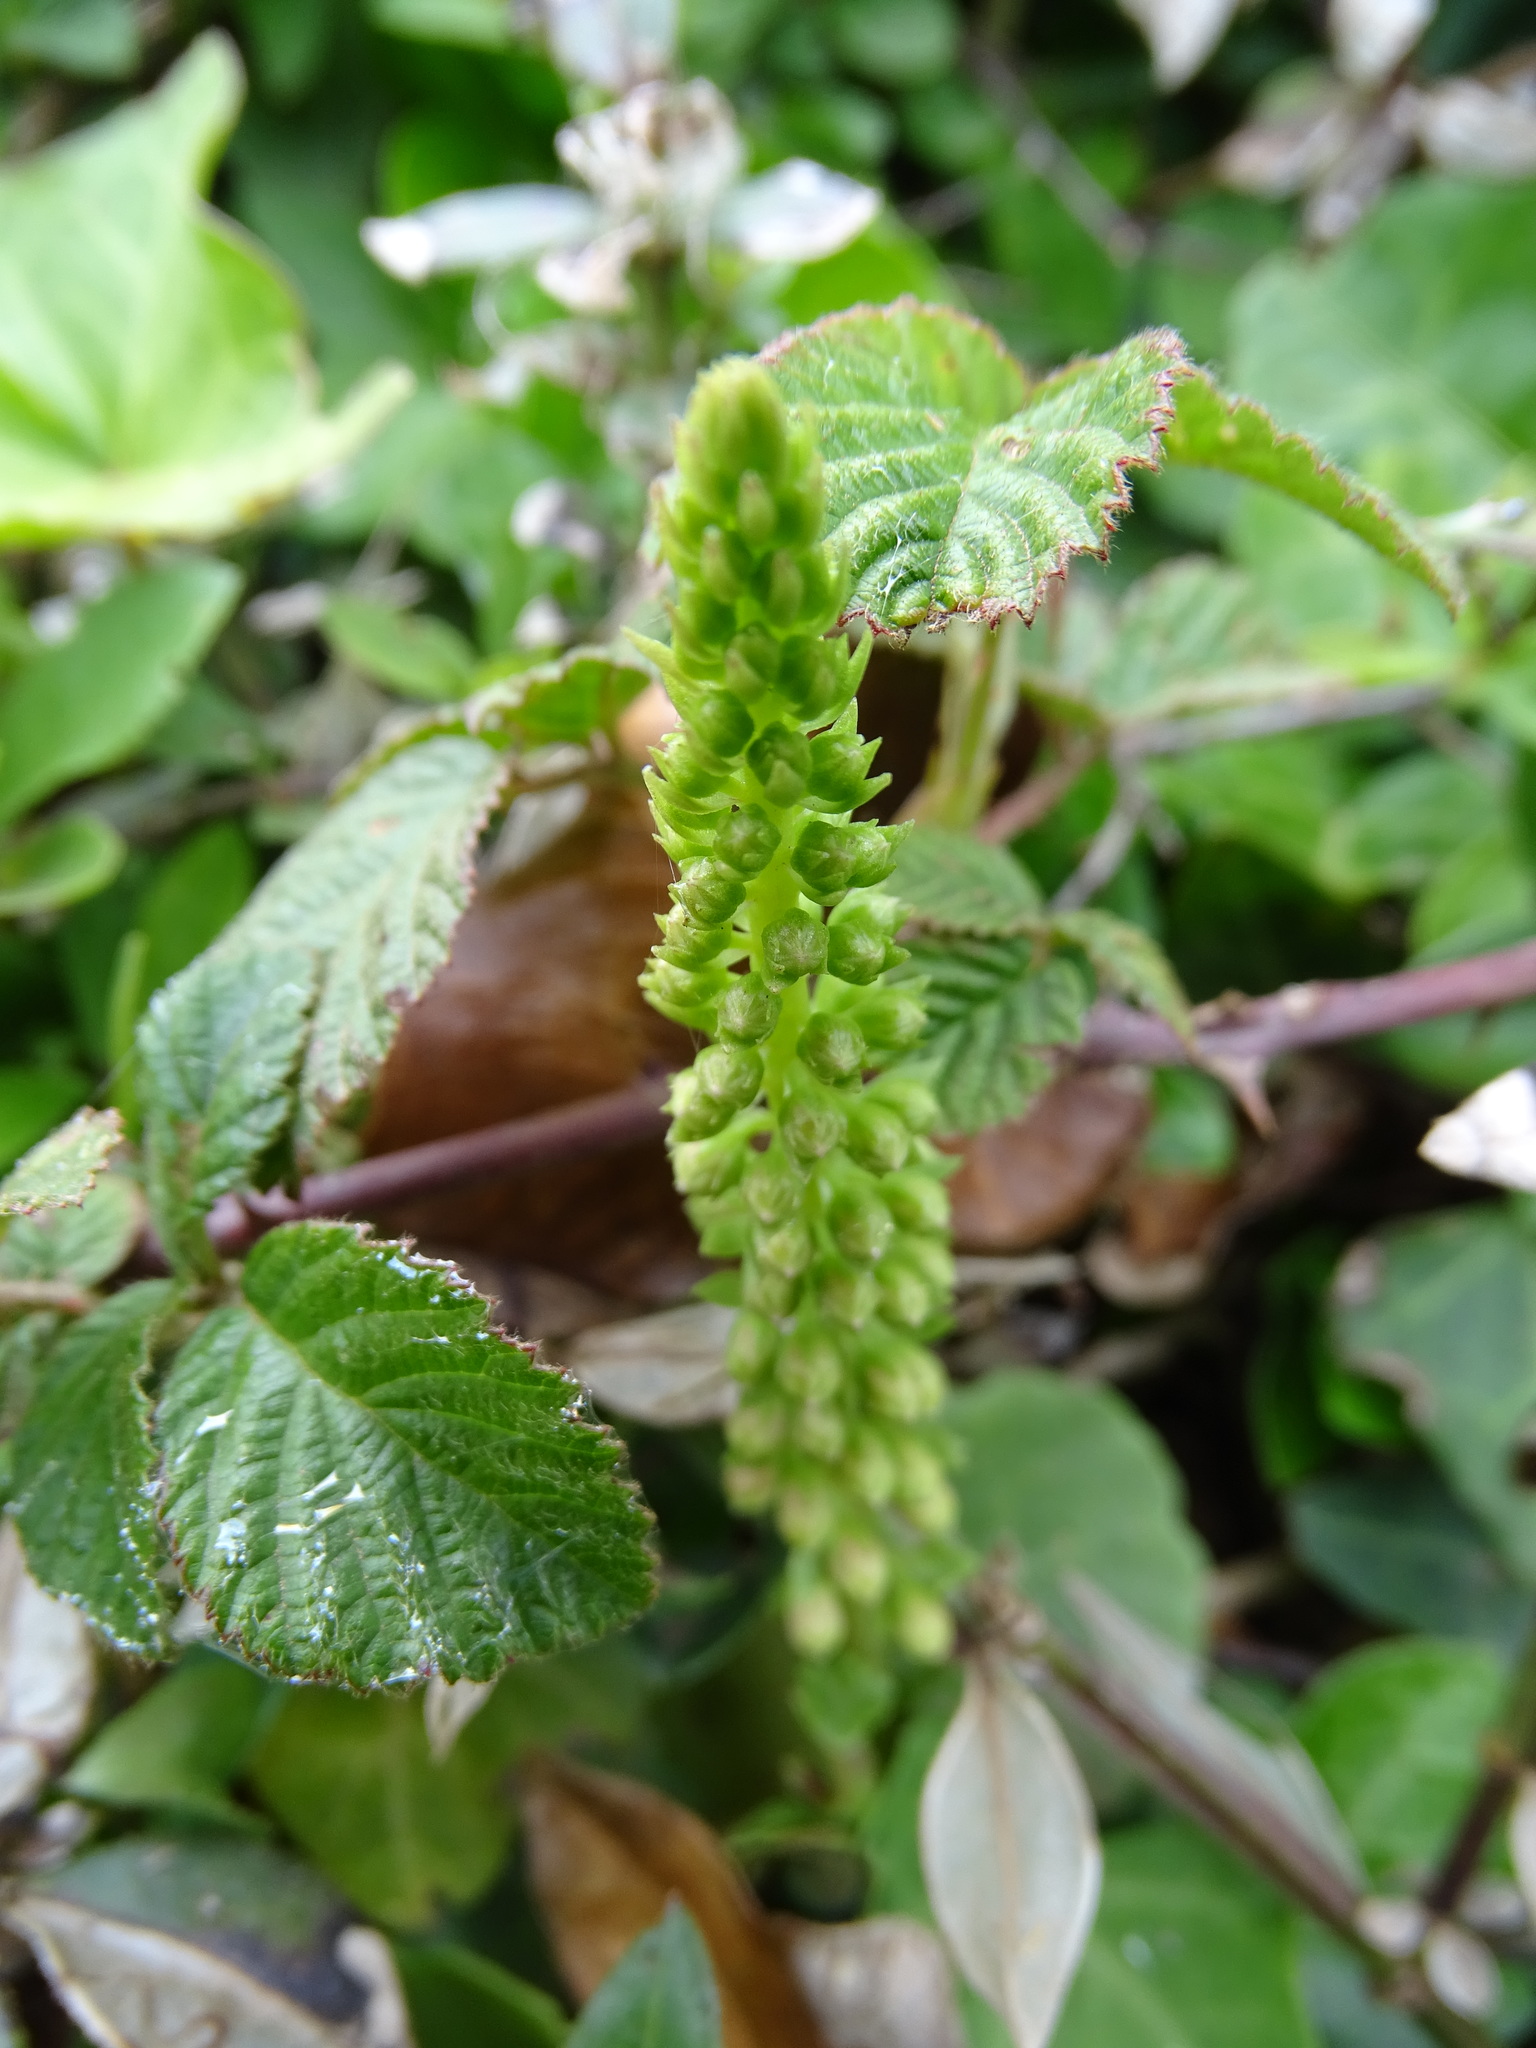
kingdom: Plantae
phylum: Tracheophyta
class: Magnoliopsida
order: Saxifragales
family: Crassulaceae
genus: Umbilicus
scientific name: Umbilicus rupestris
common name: Navelwort
